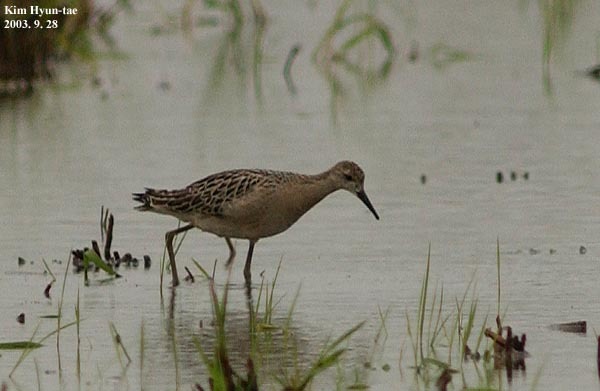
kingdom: Animalia
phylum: Chordata
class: Aves
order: Charadriiformes
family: Scolopacidae
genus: Calidris
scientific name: Calidris pugnax
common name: Ruff
